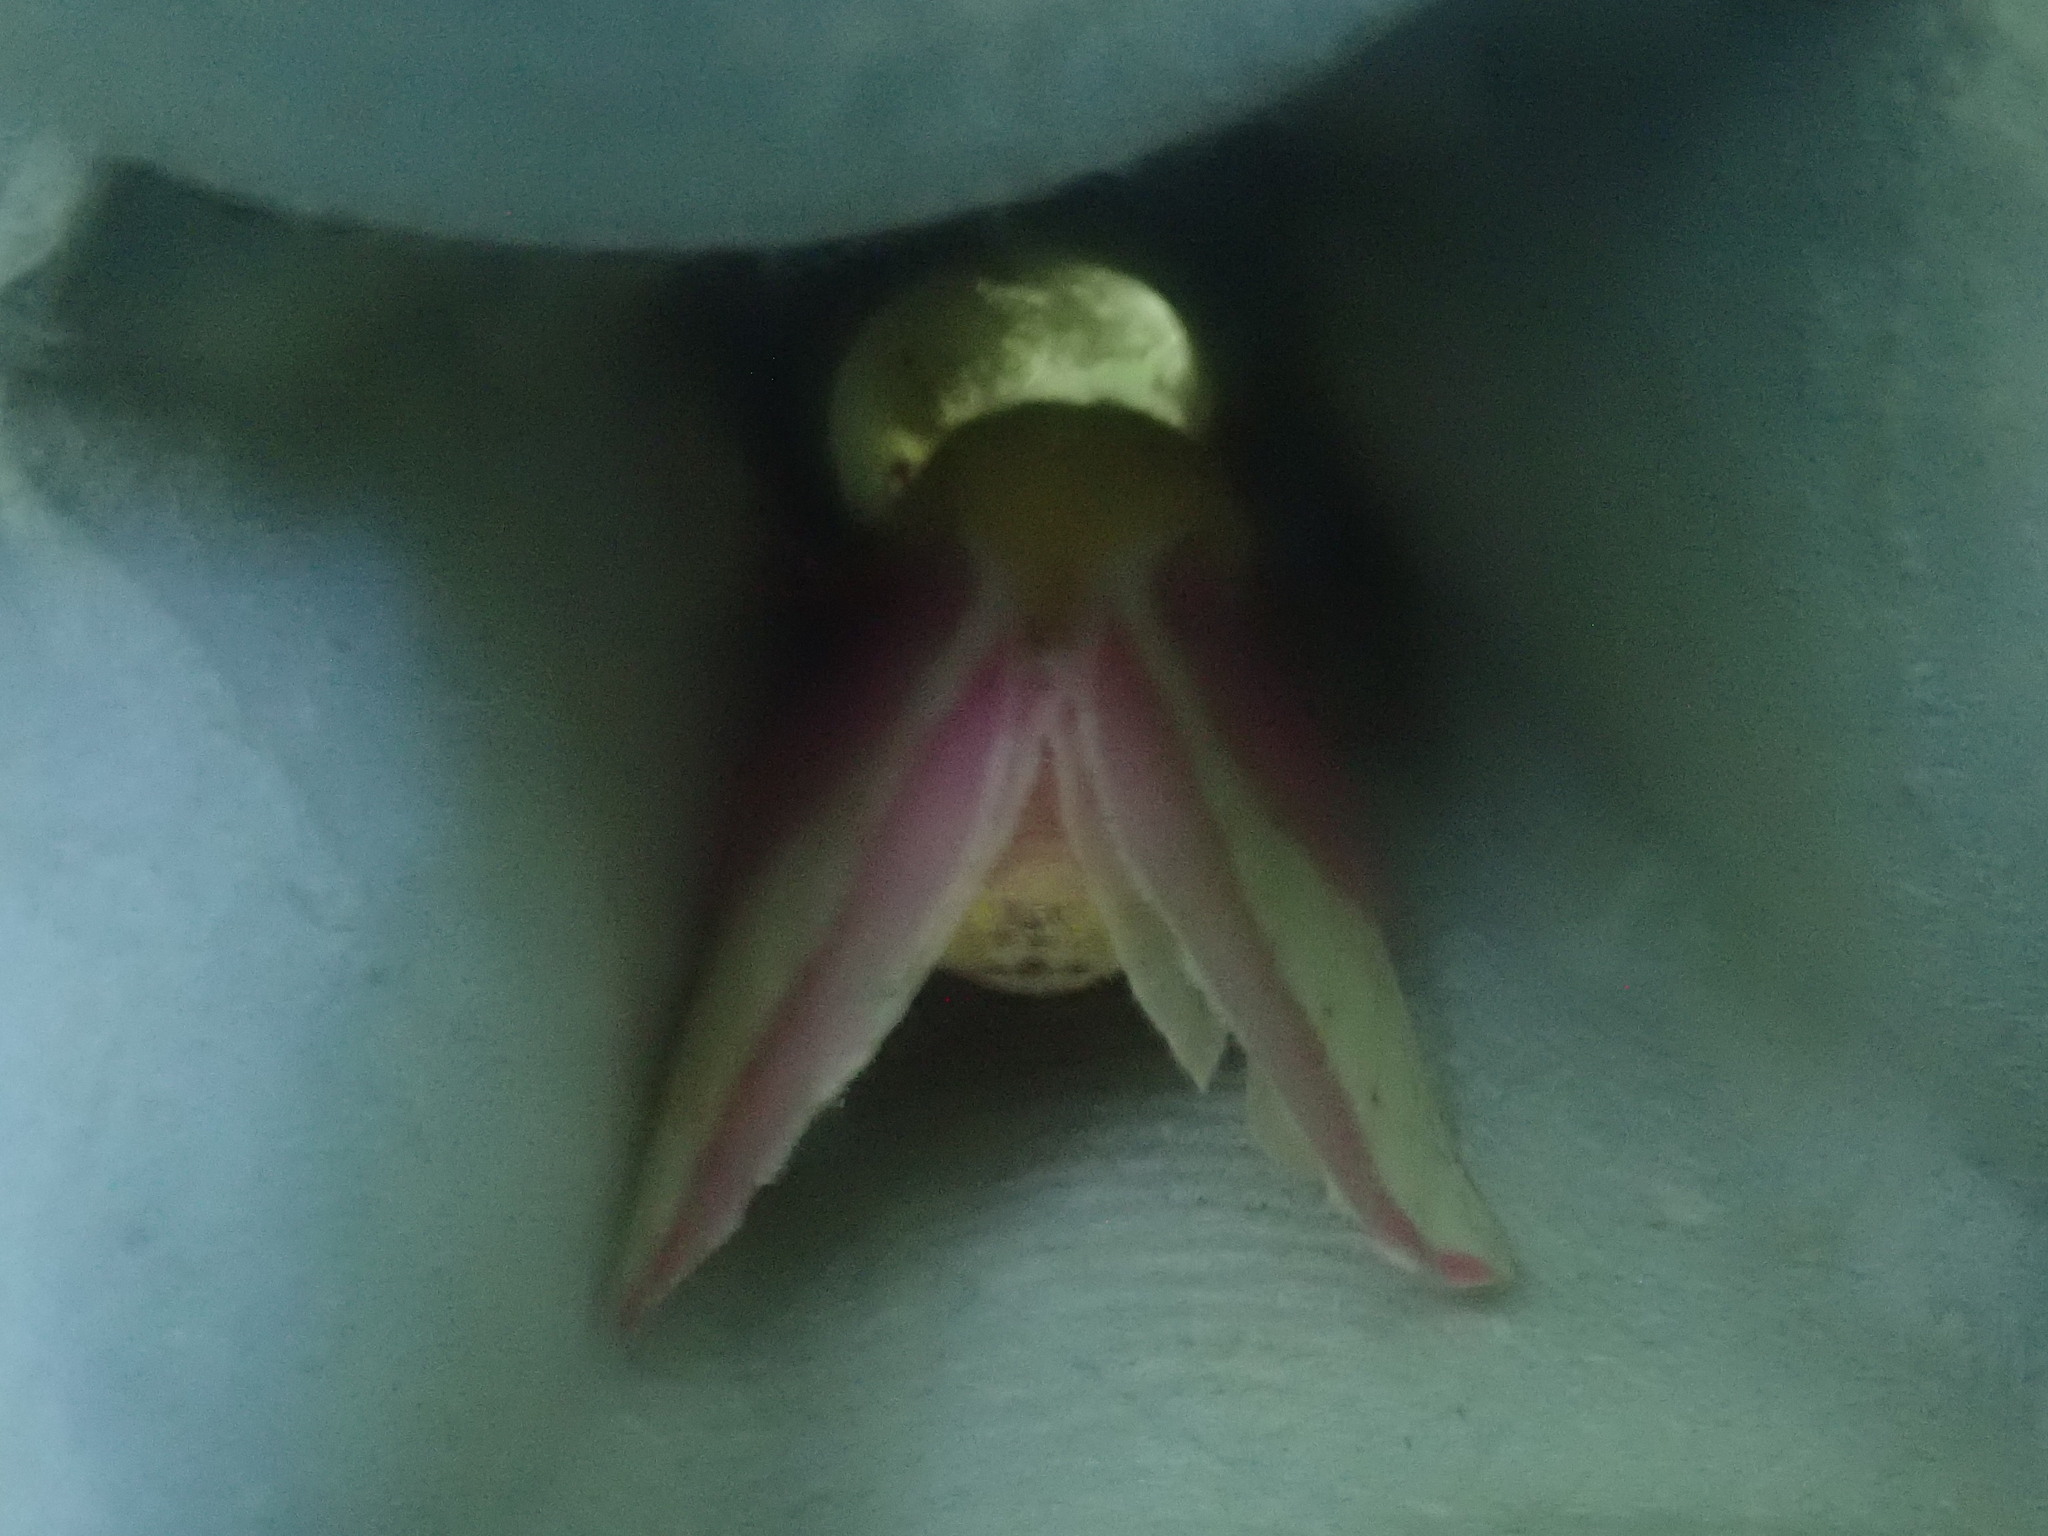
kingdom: Animalia
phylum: Arthropoda
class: Insecta
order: Lepidoptera
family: Saturniidae
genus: Dryocampa
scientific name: Dryocampa rubicunda
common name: Rosy maple moth
